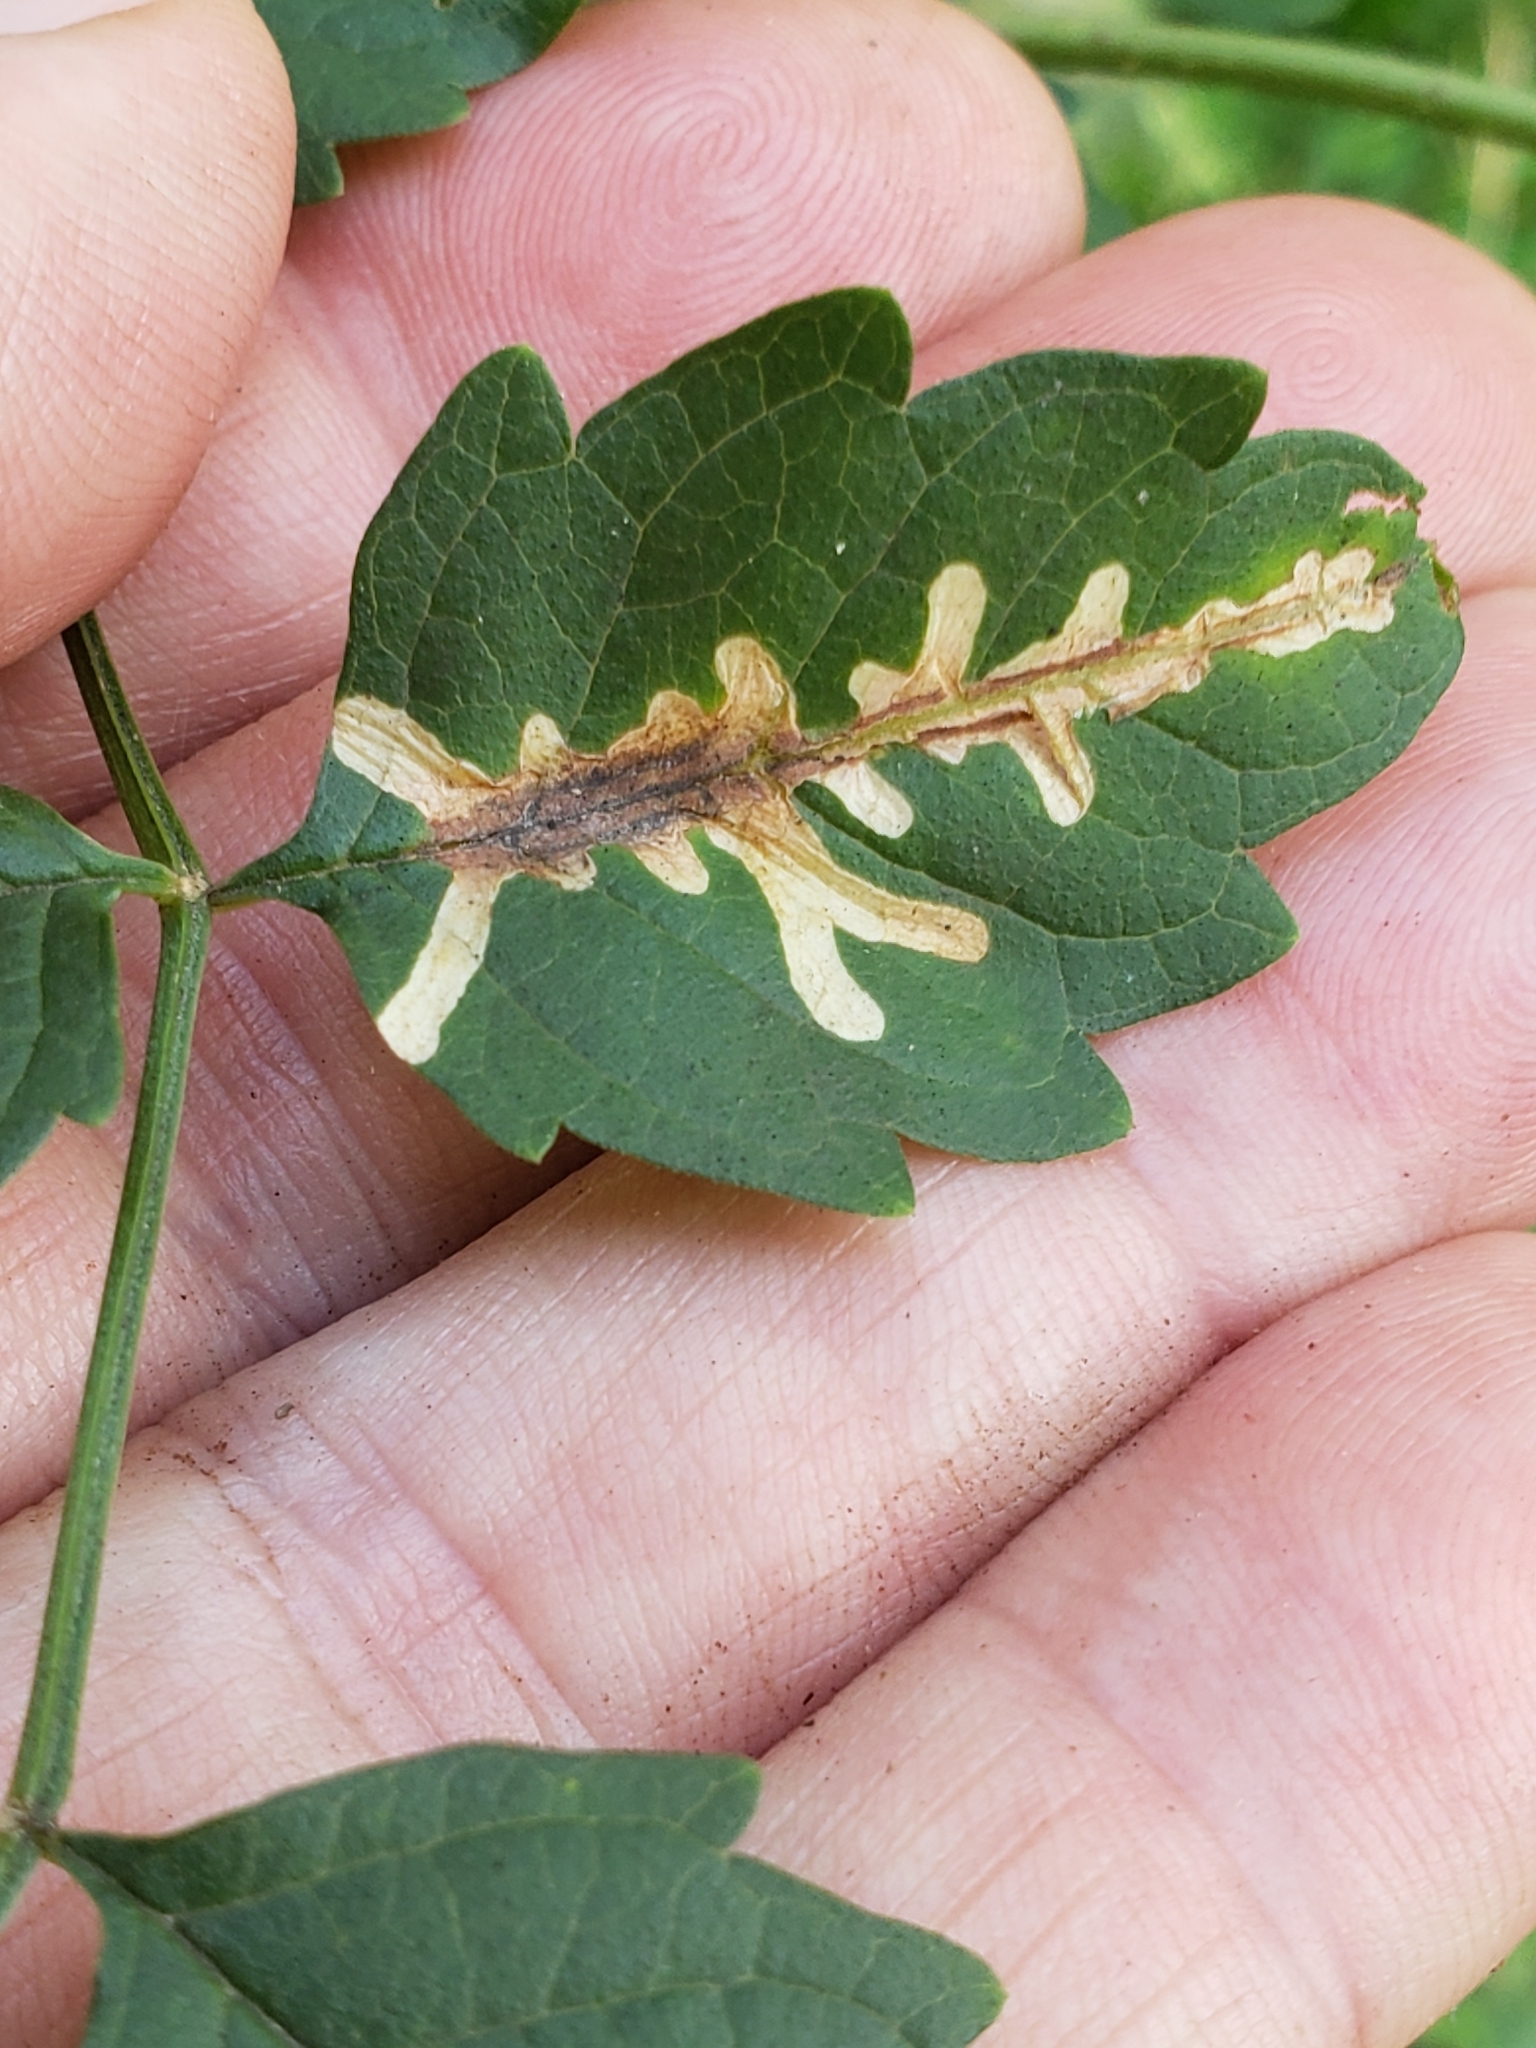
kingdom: Animalia
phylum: Arthropoda
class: Insecta
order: Coleoptera
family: Chrysomelidae
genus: Octotoma
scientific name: Octotoma plicatula
